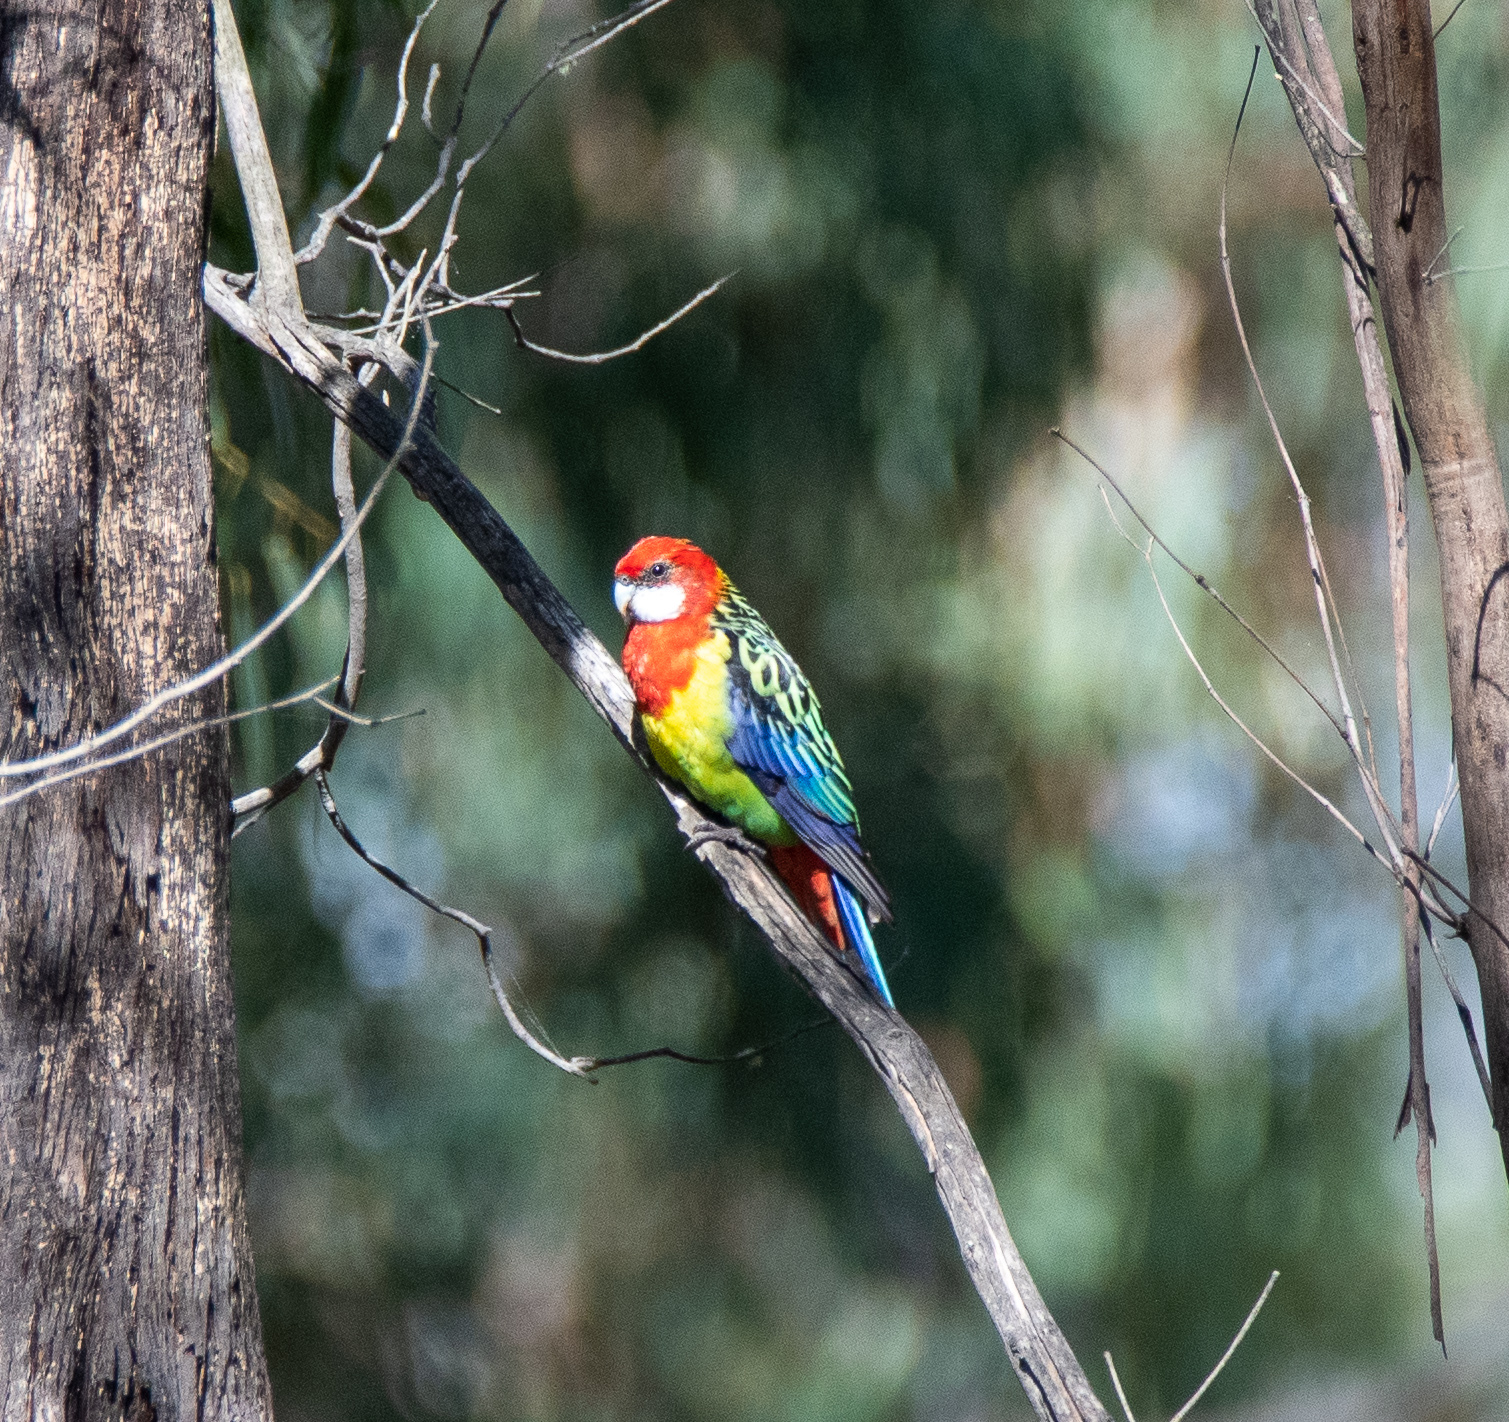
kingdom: Animalia
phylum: Chordata
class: Aves
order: Psittaciformes
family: Psittacidae
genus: Platycercus
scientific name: Platycercus eximius
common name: Eastern rosella
